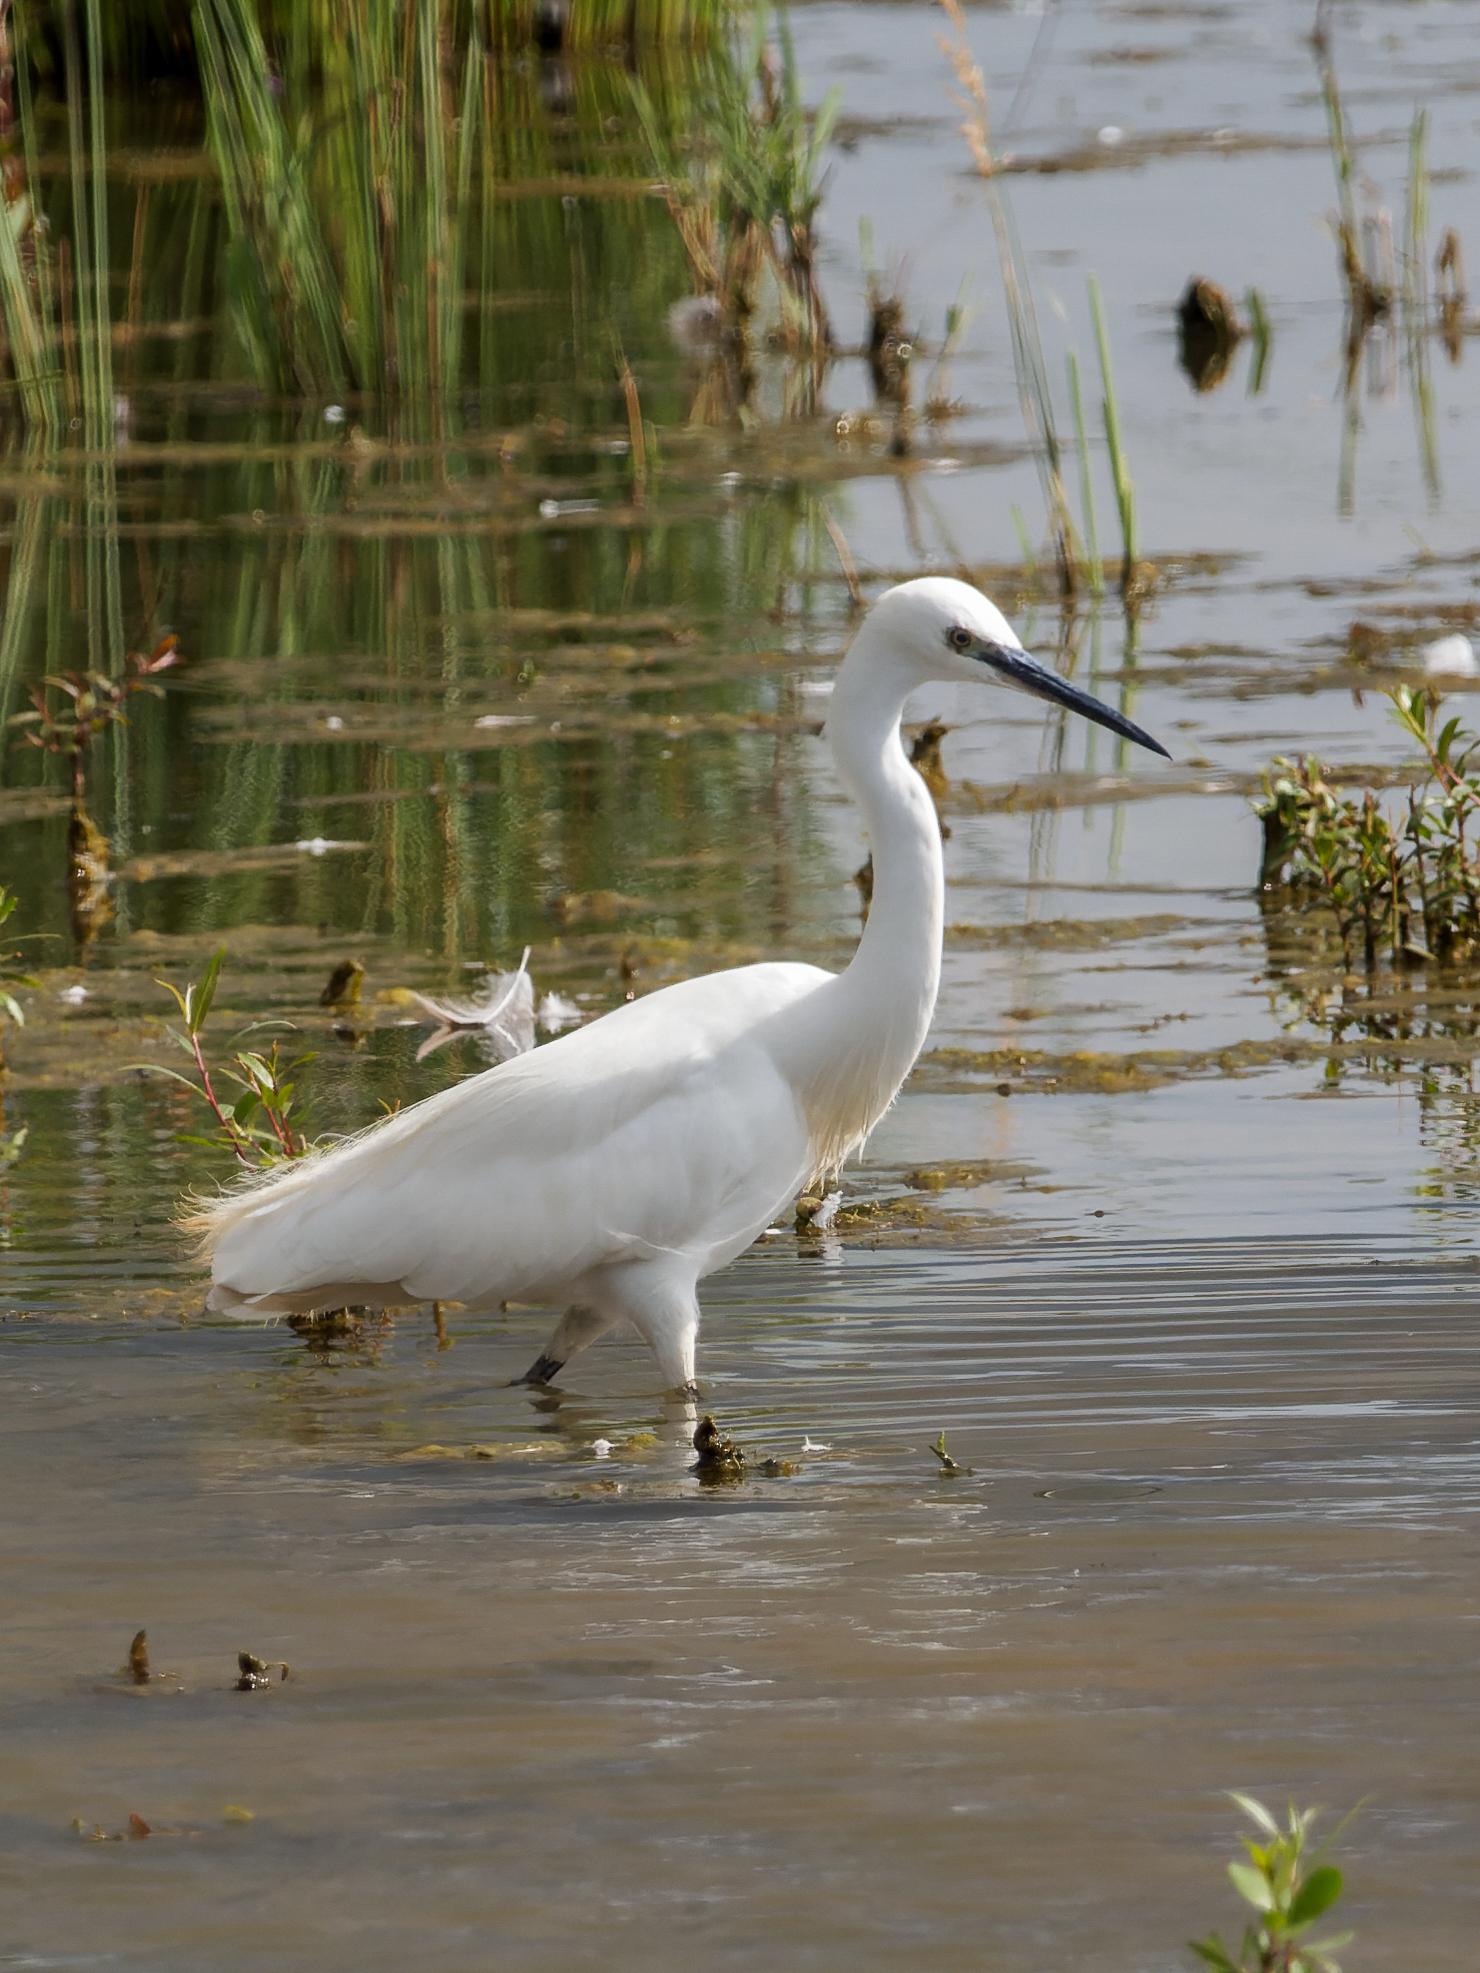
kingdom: Animalia
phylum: Chordata
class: Aves
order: Pelecaniformes
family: Ardeidae
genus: Egretta
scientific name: Egretta garzetta
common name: Little egret
